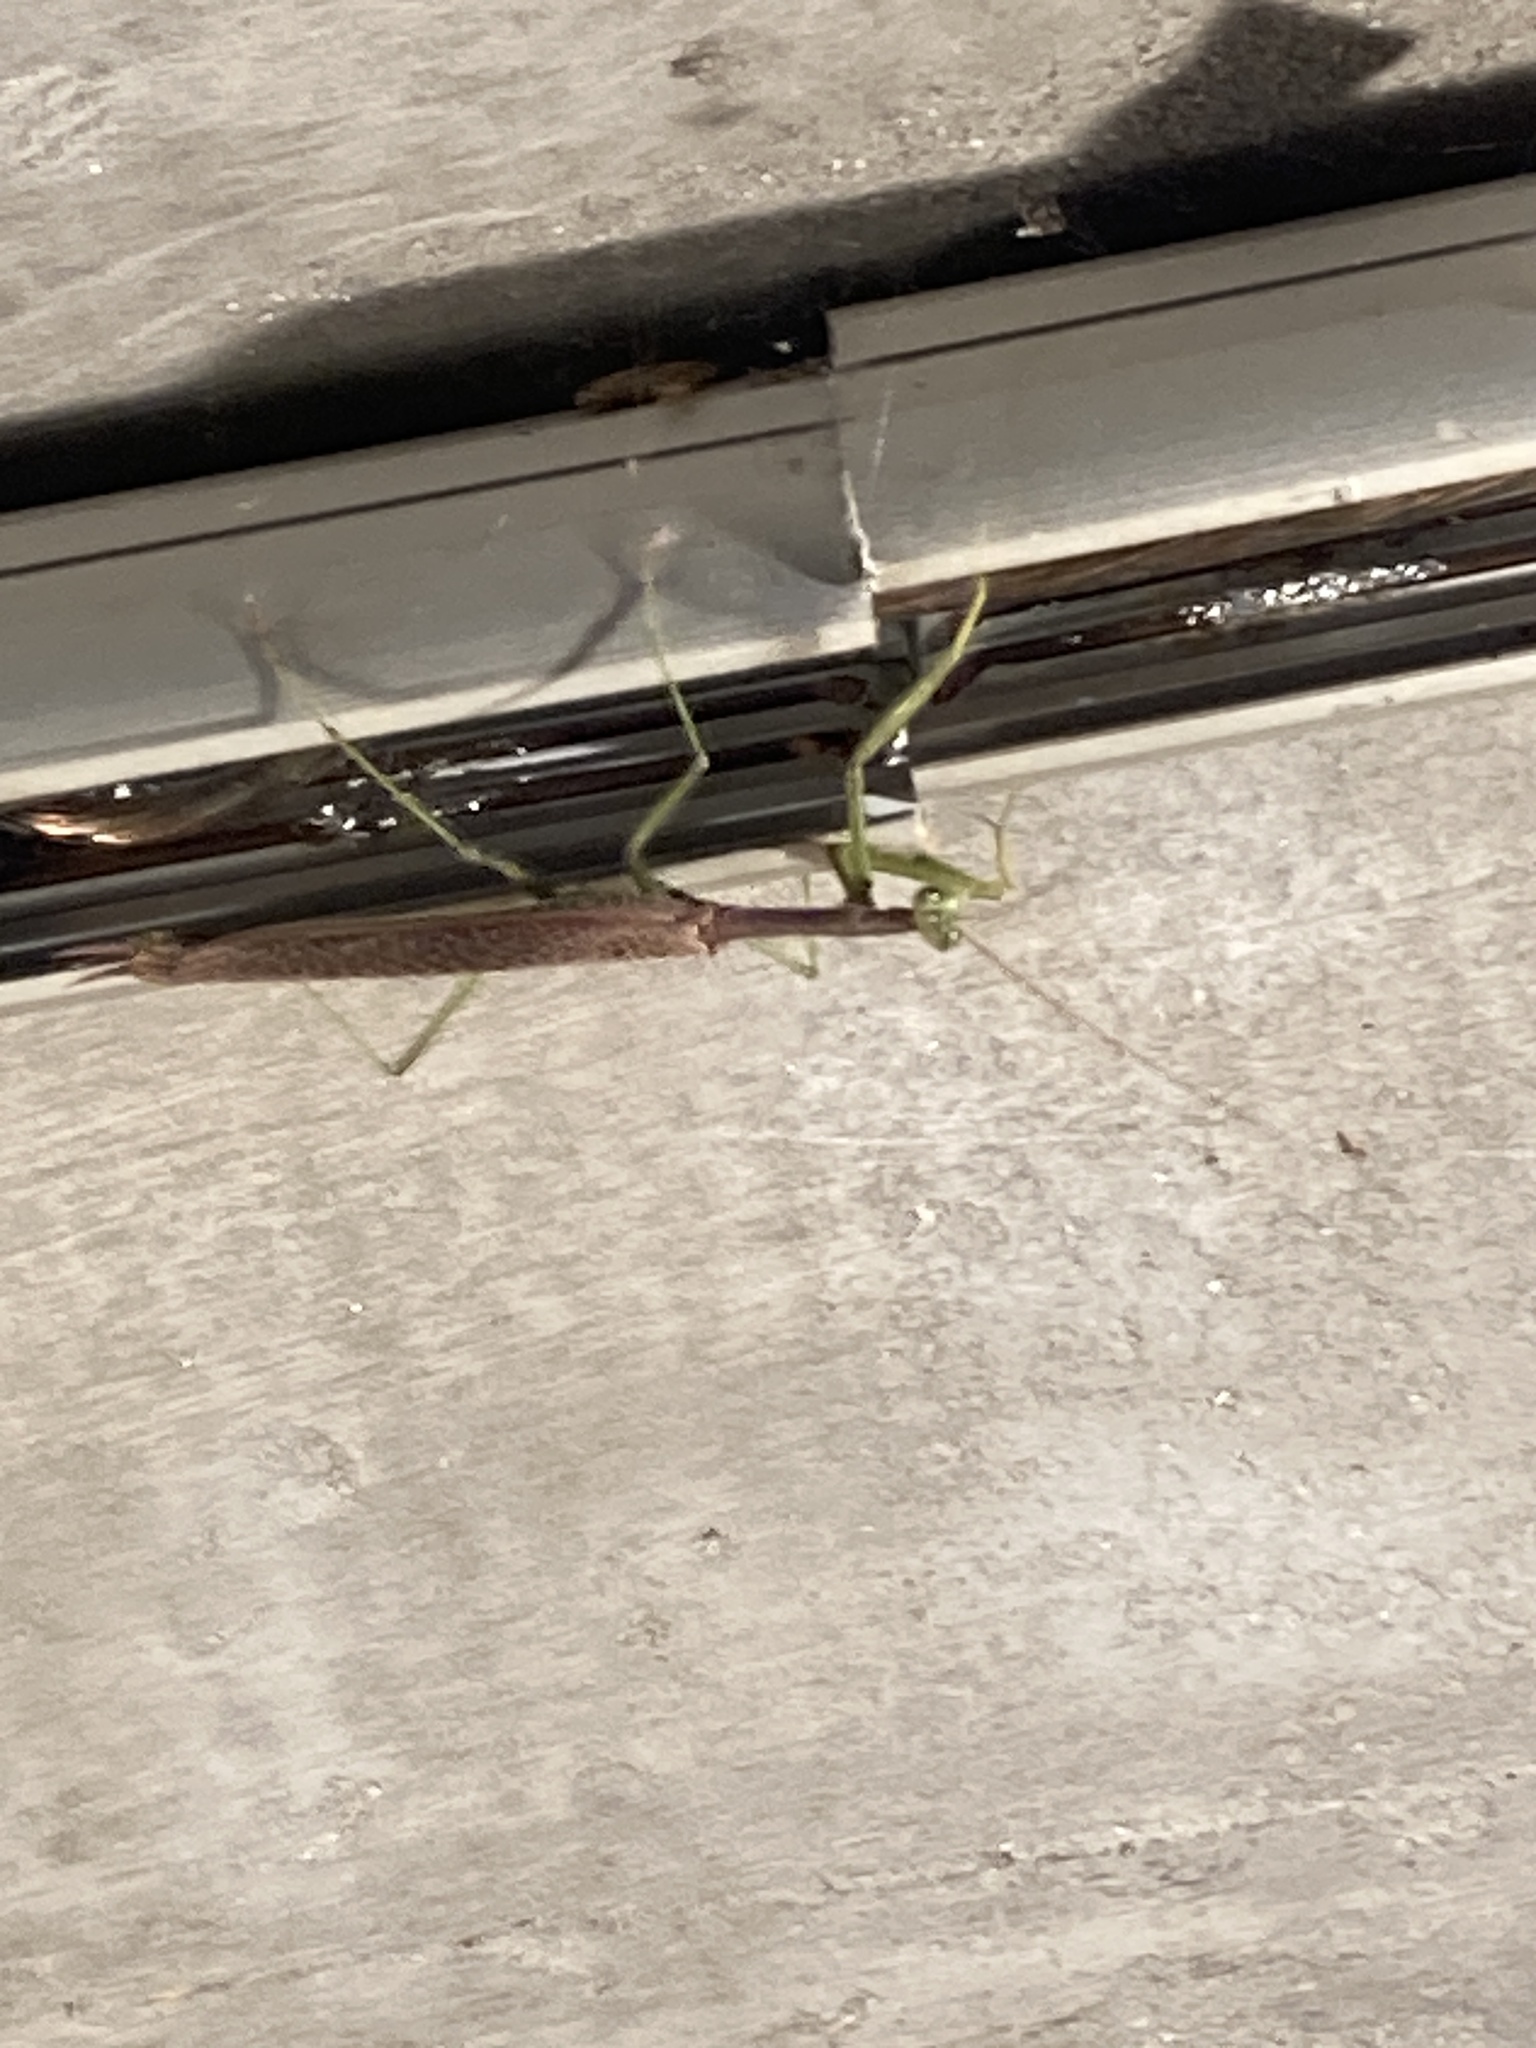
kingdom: Animalia
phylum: Arthropoda
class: Insecta
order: Mantodea
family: Coptopterygidae
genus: Coptopteryx
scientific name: Coptopteryx gayi
